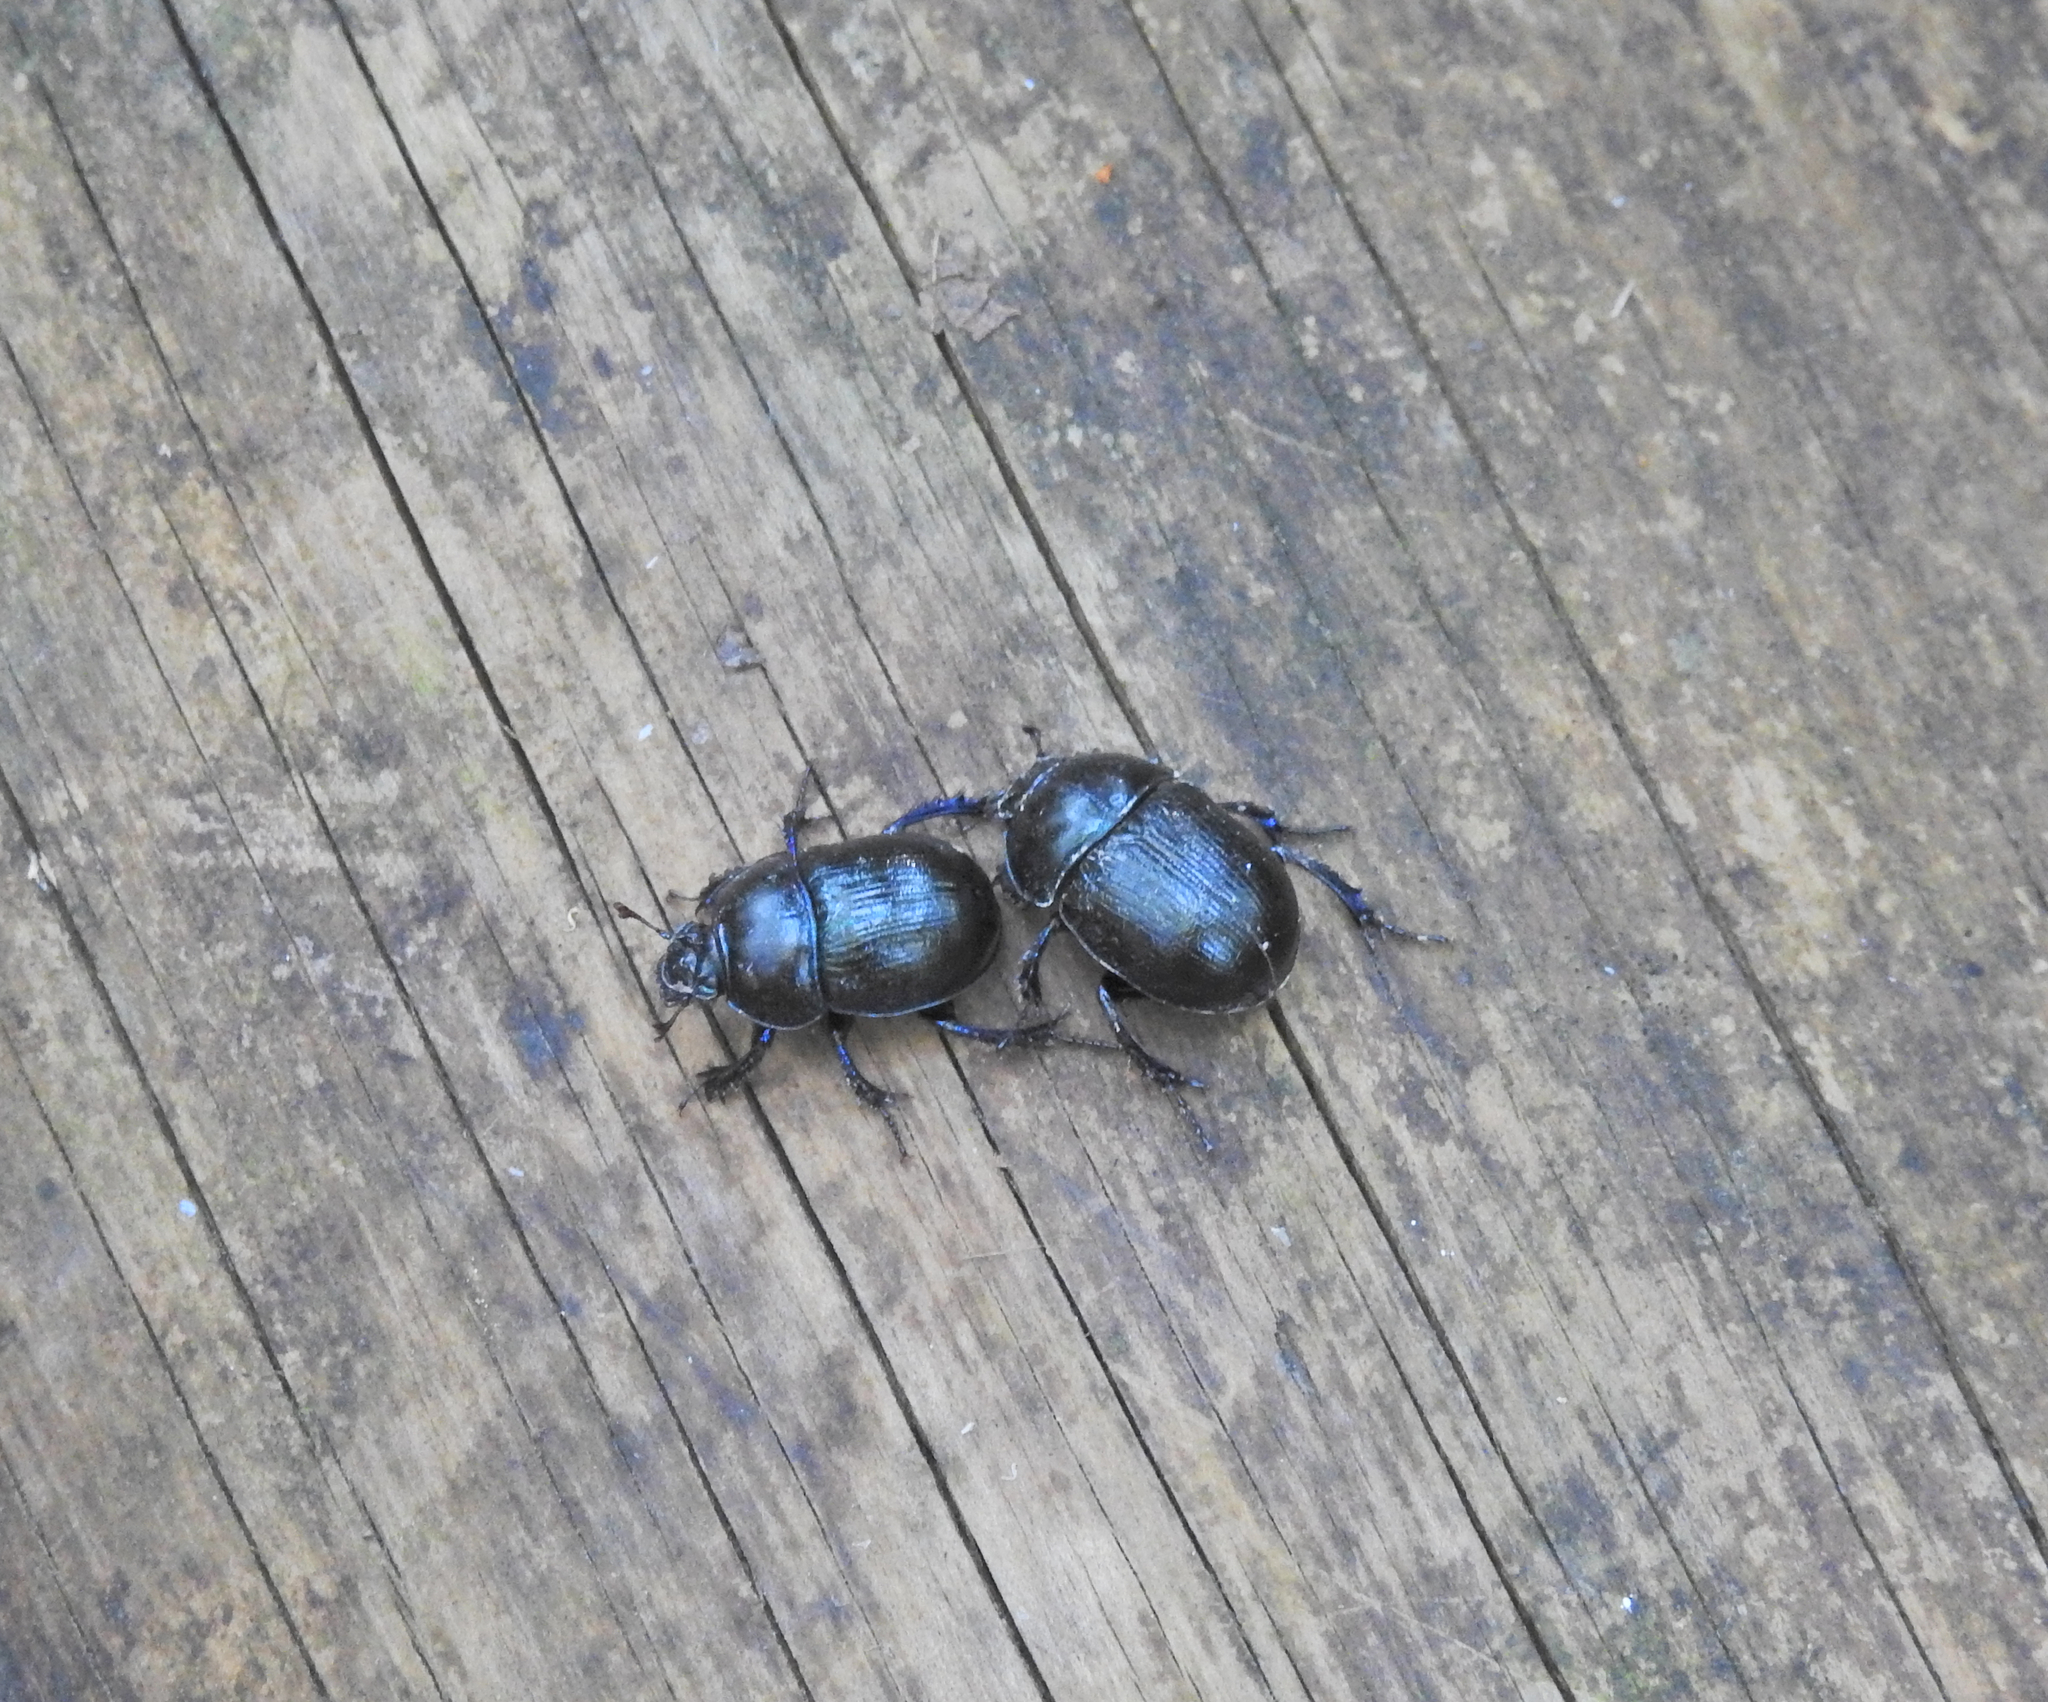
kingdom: Animalia
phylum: Arthropoda
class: Insecta
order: Coleoptera
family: Geotrupidae
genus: Anoplotrupes
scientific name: Anoplotrupes stercorosus
